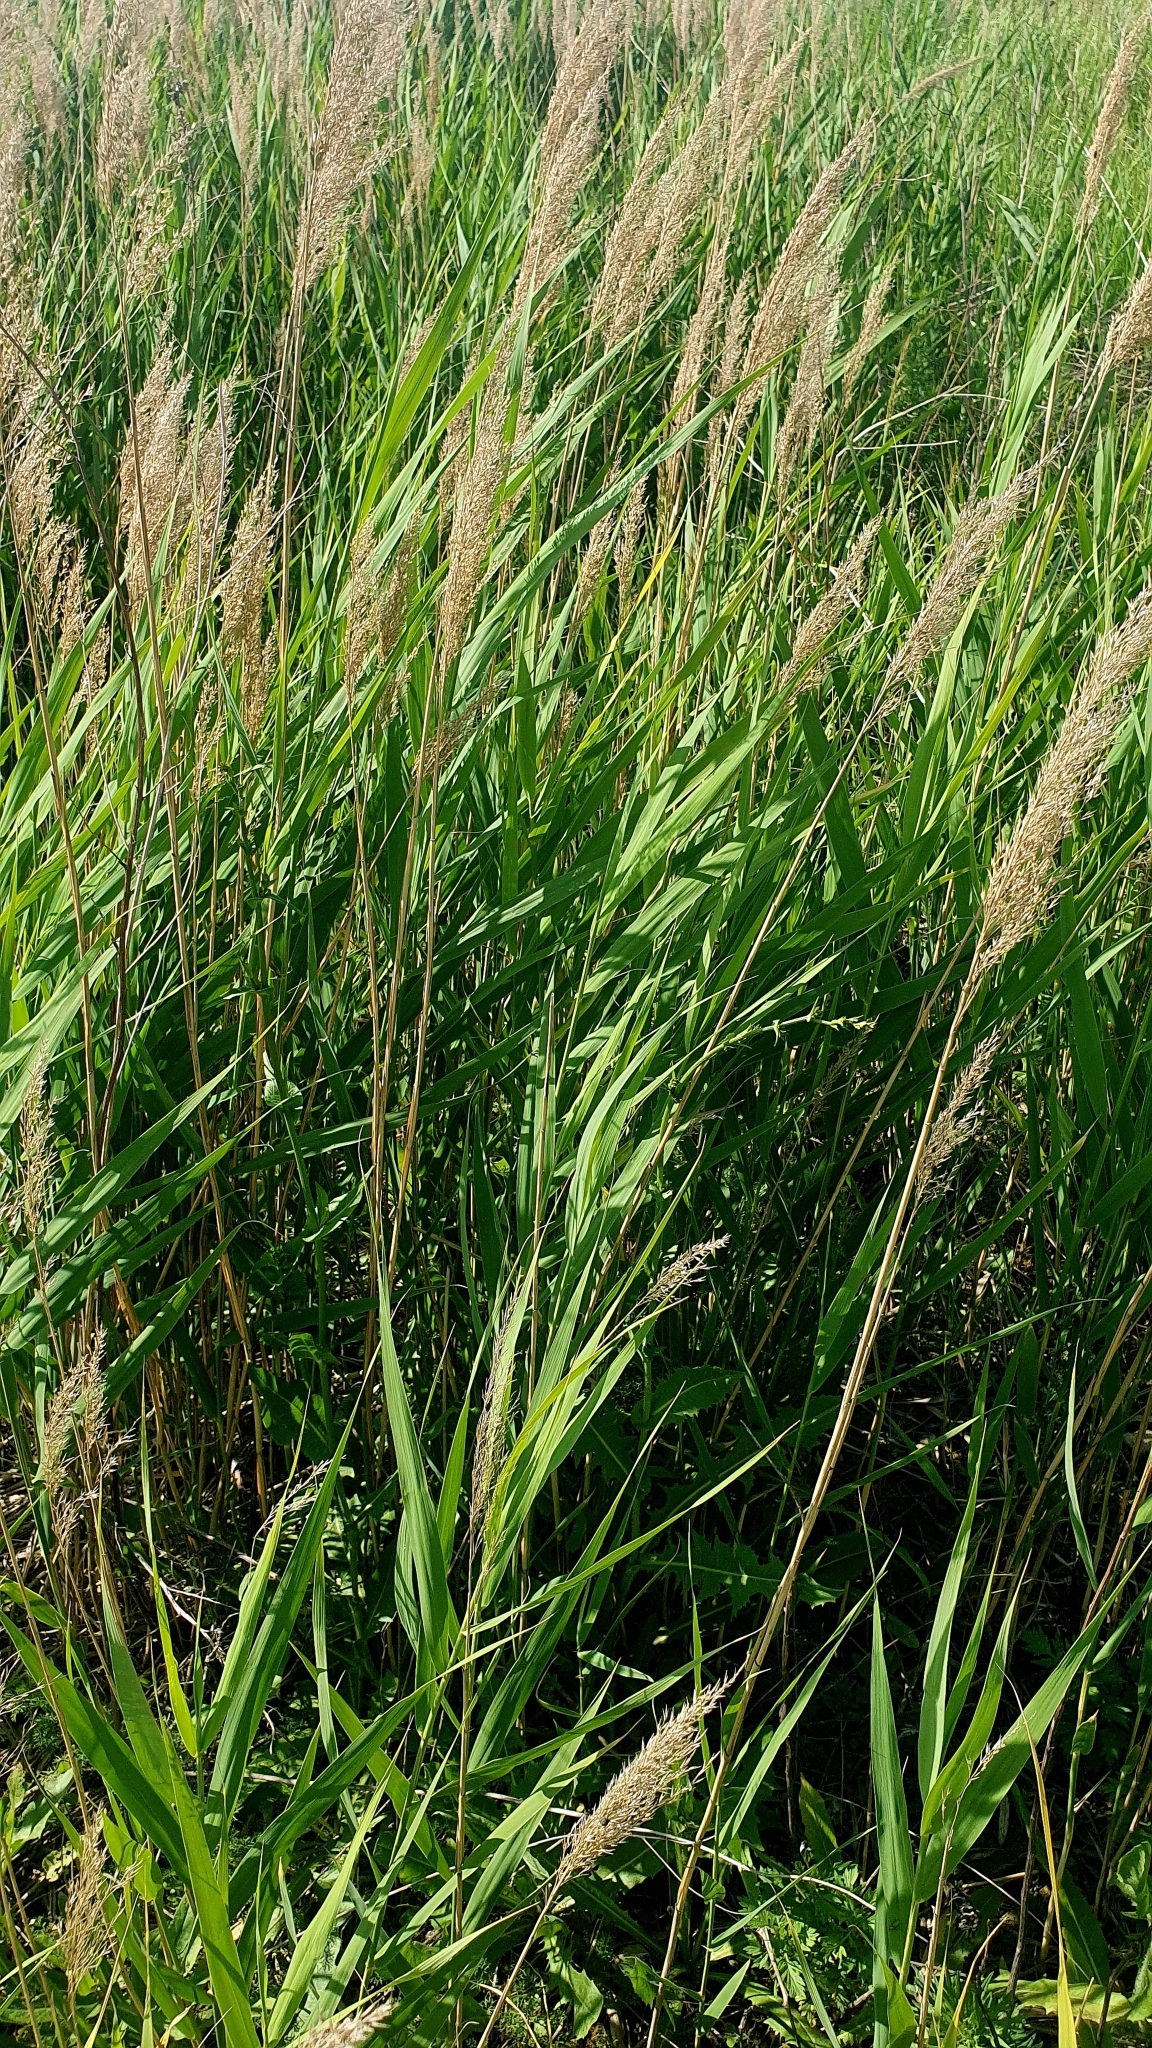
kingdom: Plantae
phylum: Tracheophyta
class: Liliopsida
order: Poales
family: Poaceae
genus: Phragmites
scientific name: Phragmites australis
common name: Common reed
